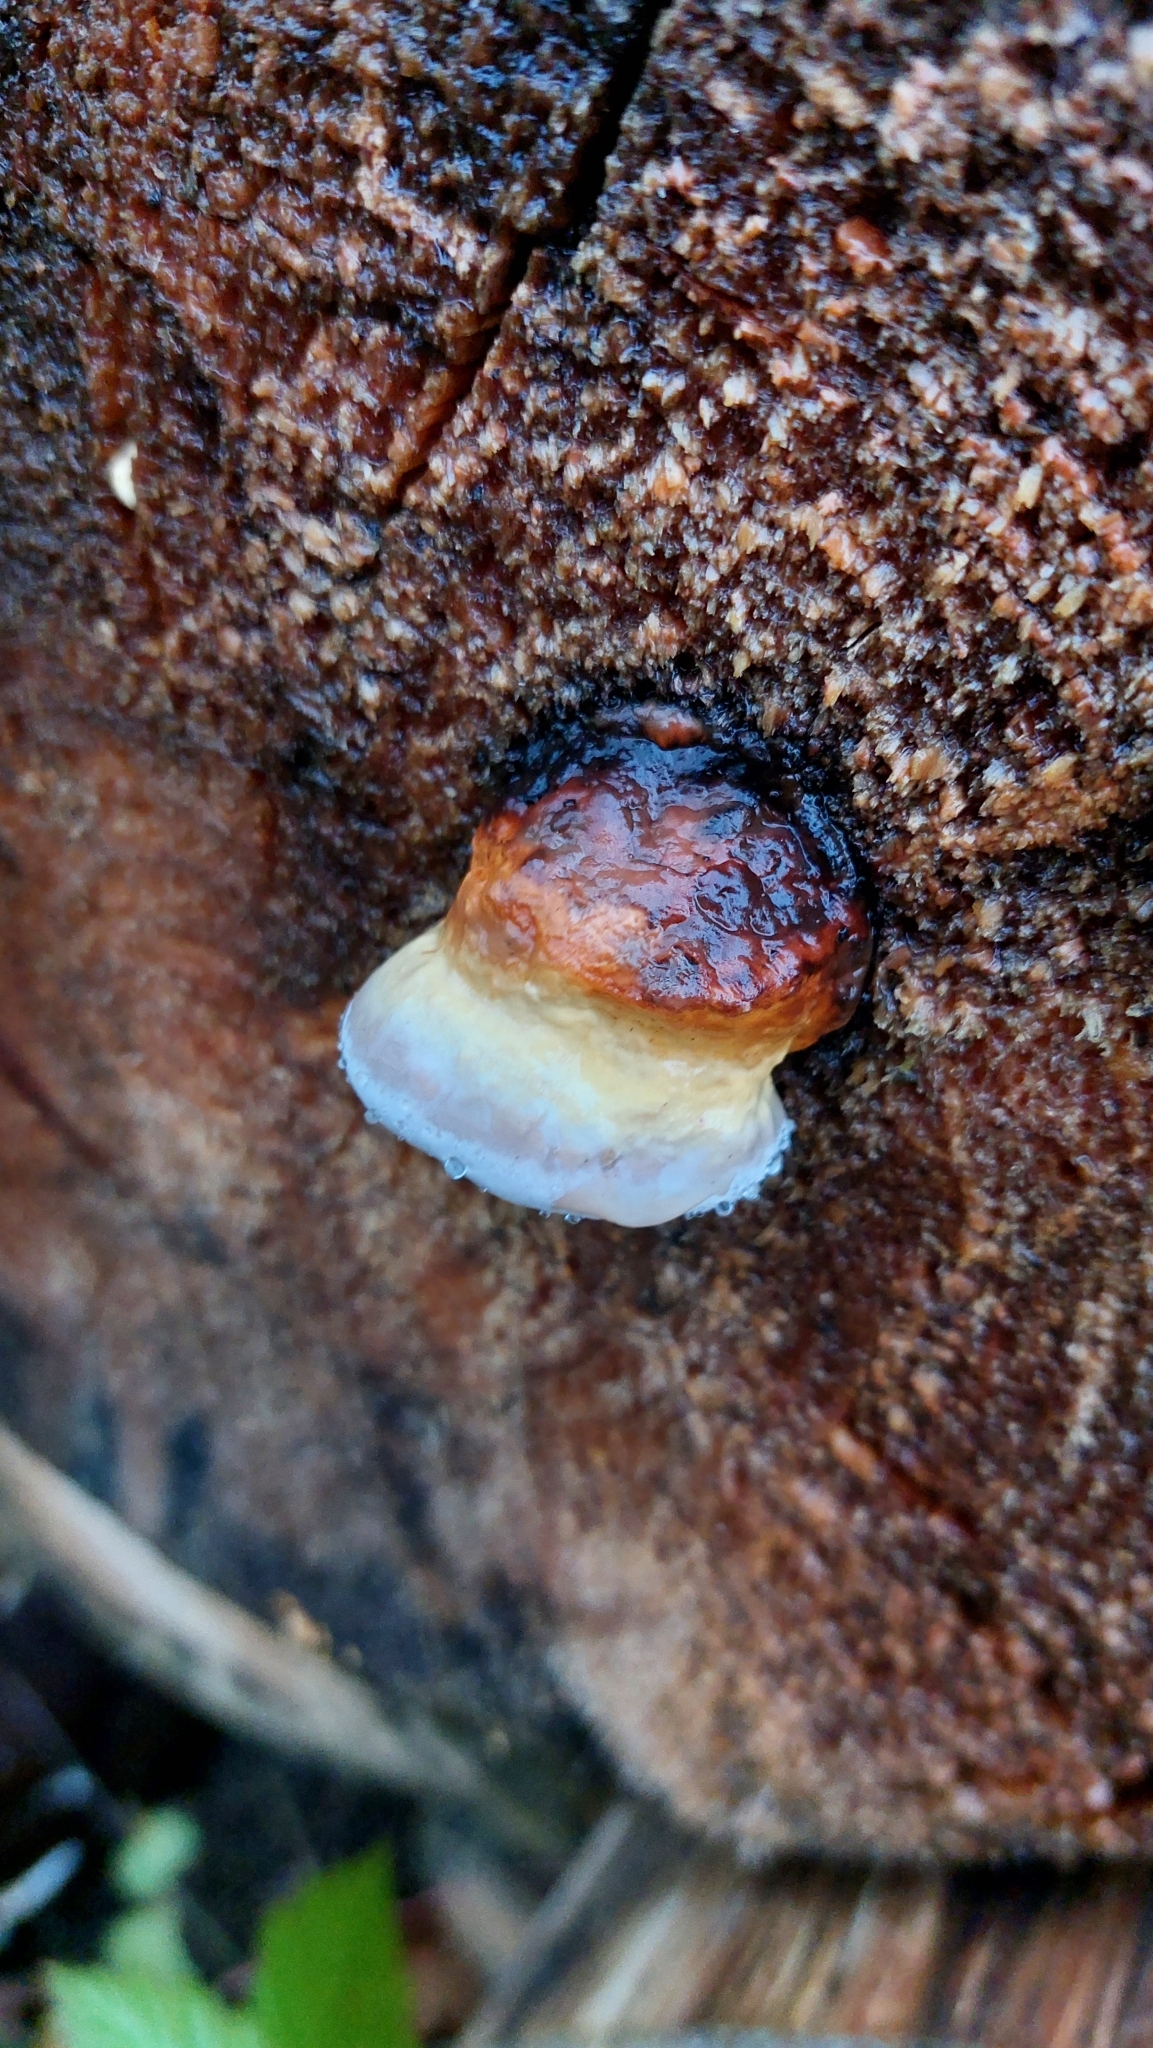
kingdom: Fungi
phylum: Basidiomycota
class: Agaricomycetes
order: Polyporales
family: Fomitopsidaceae
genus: Fomitopsis
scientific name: Fomitopsis pinicola
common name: Red-belted bracket
